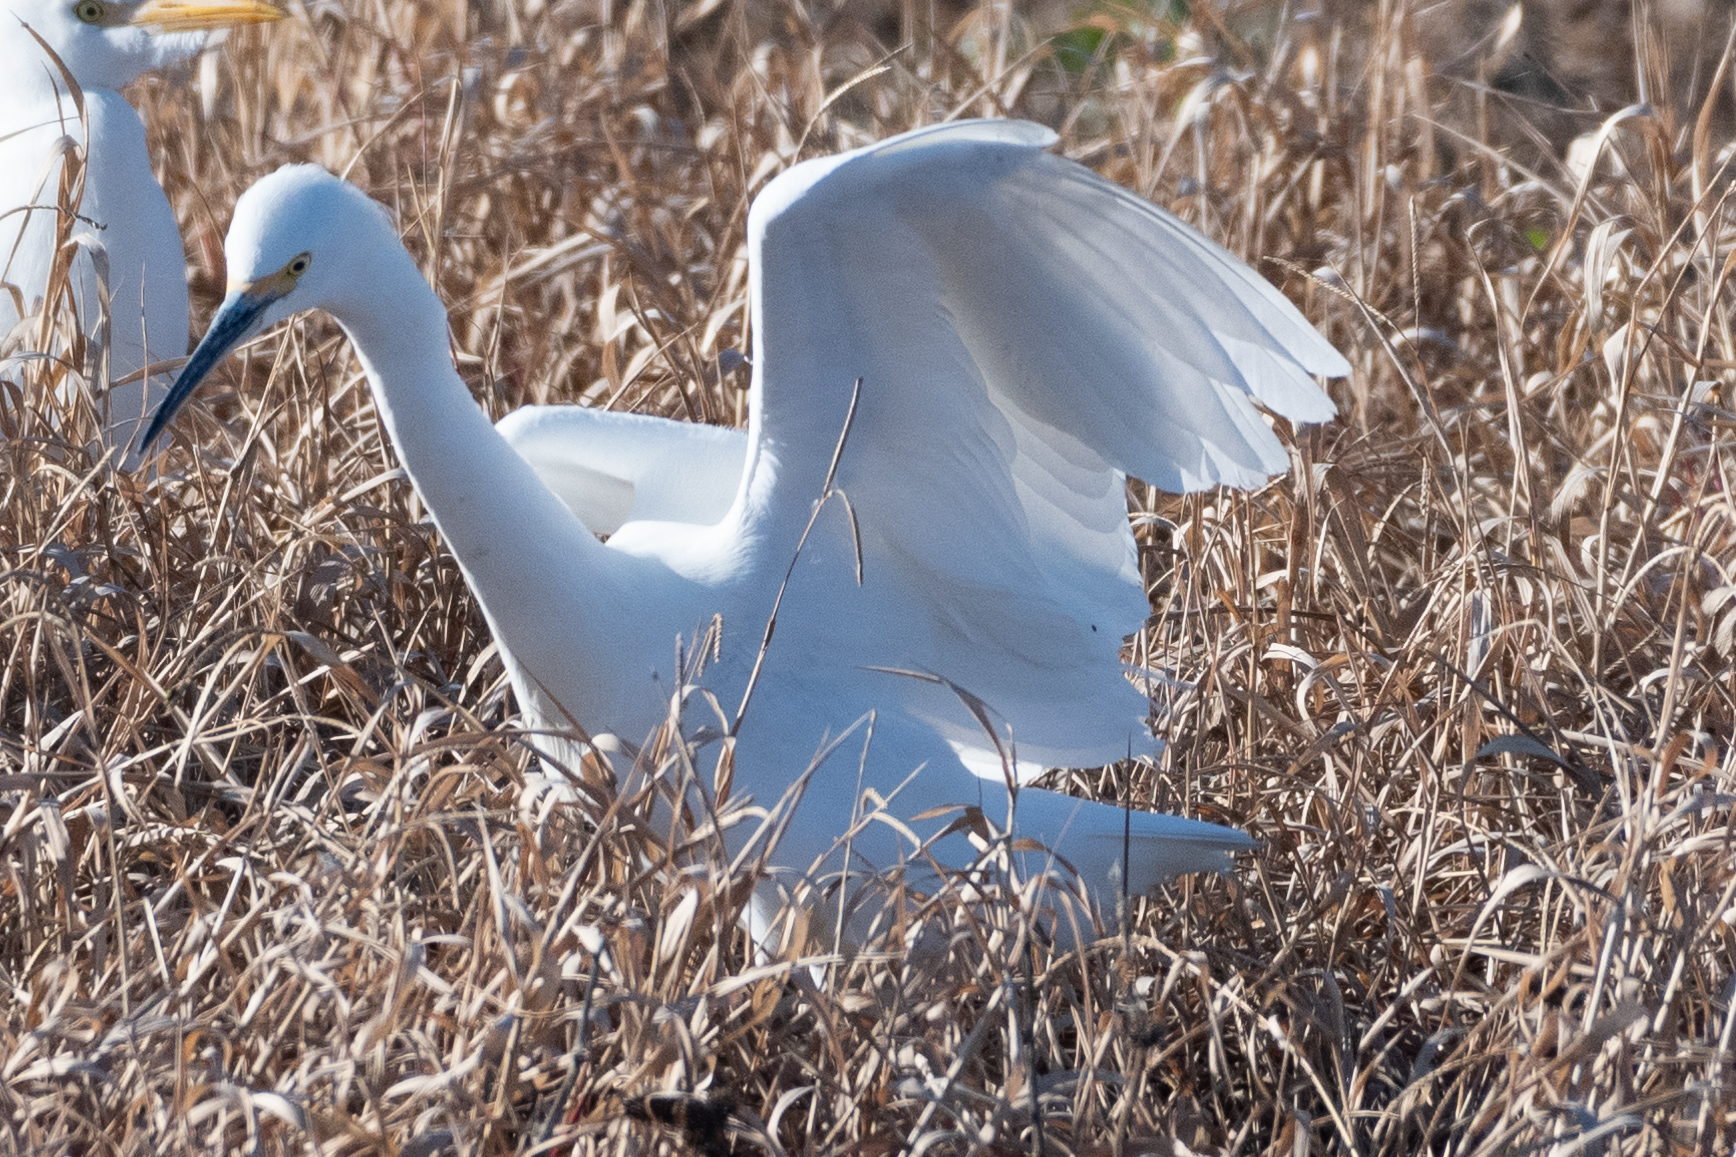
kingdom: Animalia
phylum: Chordata
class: Aves
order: Pelecaniformes
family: Ardeidae
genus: Egretta
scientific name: Egretta thula
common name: Snowy egret
